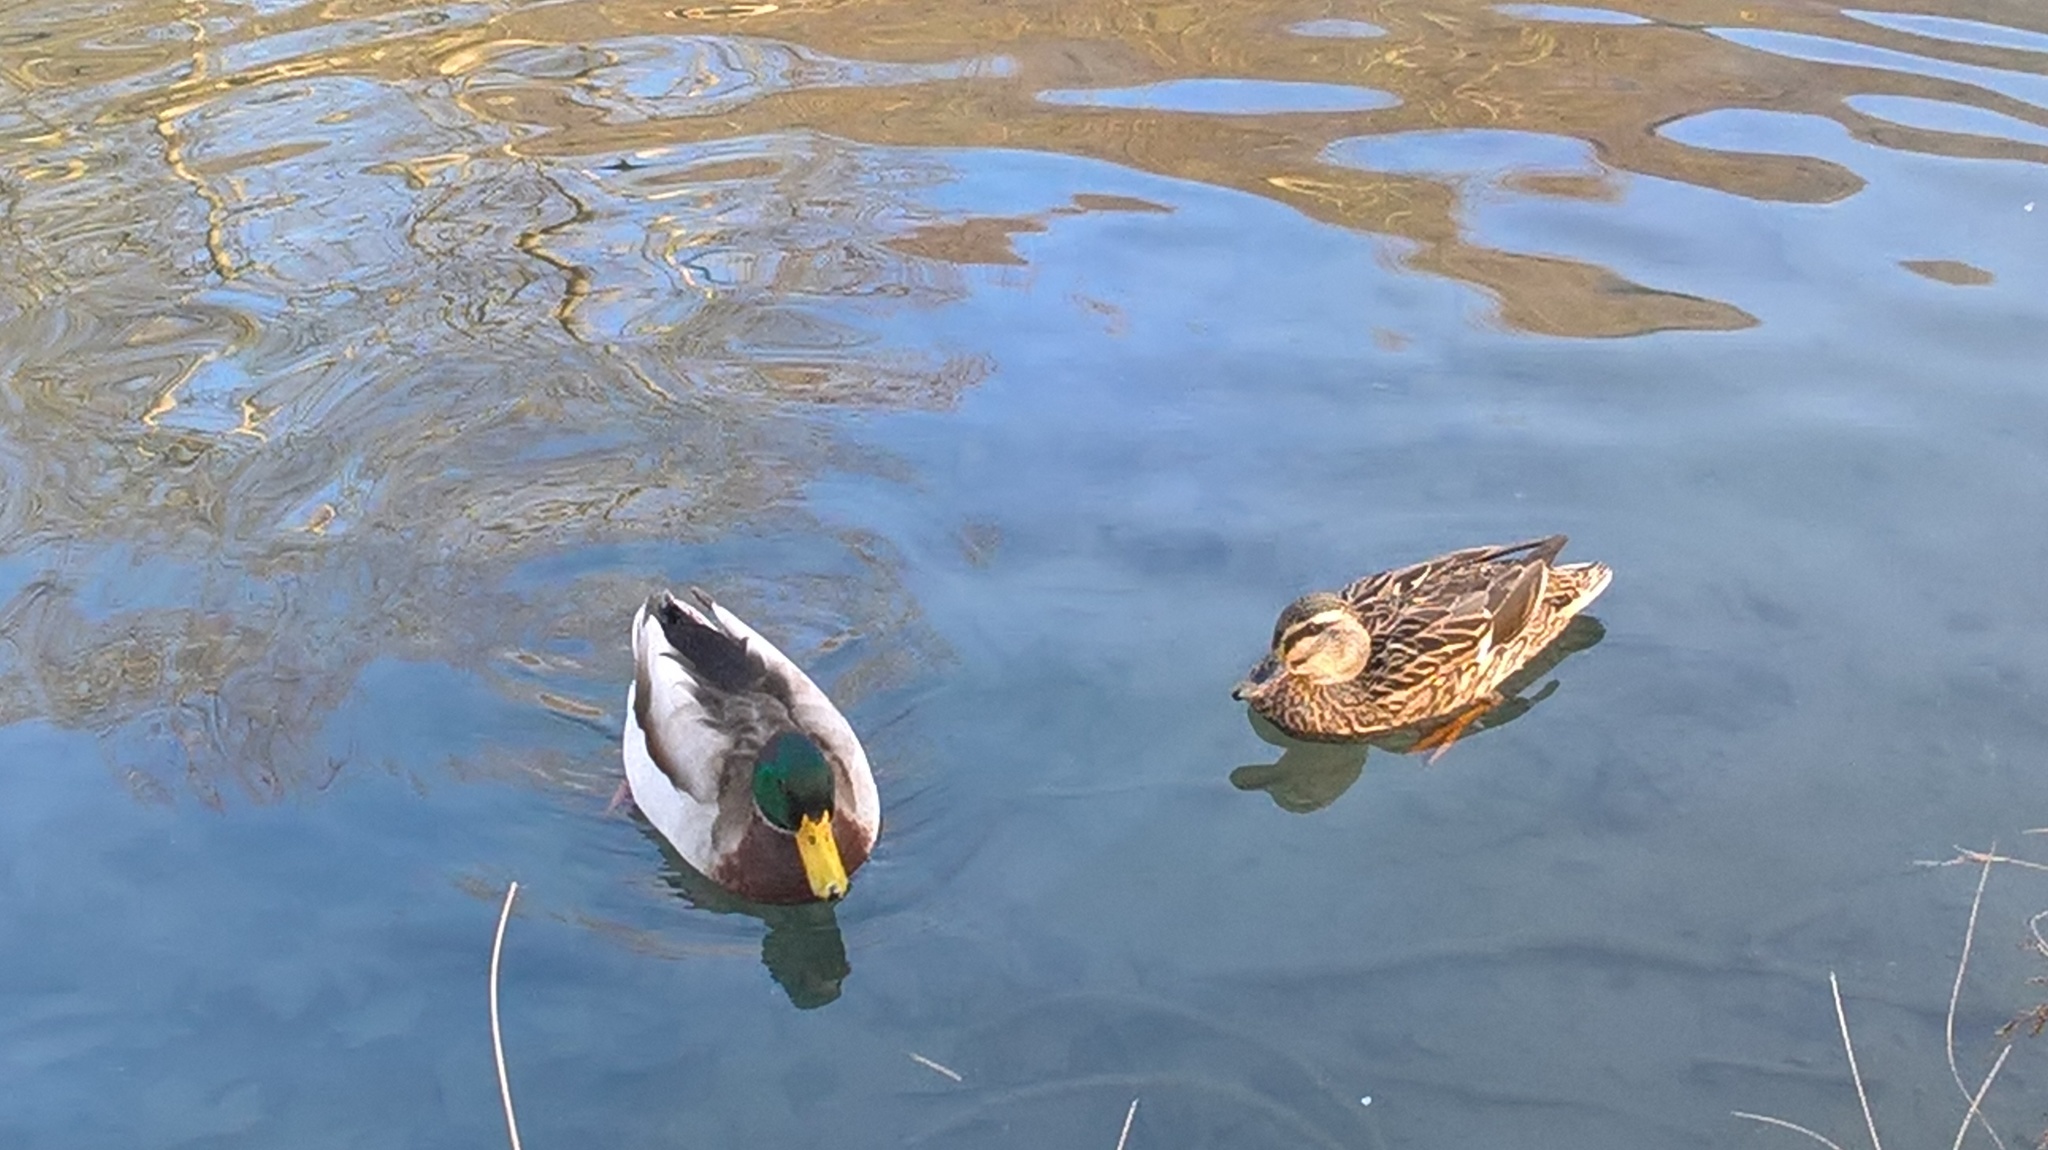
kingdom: Animalia
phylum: Chordata
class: Aves
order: Anseriformes
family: Anatidae
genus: Anas
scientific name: Anas platyrhynchos
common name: Mallard
